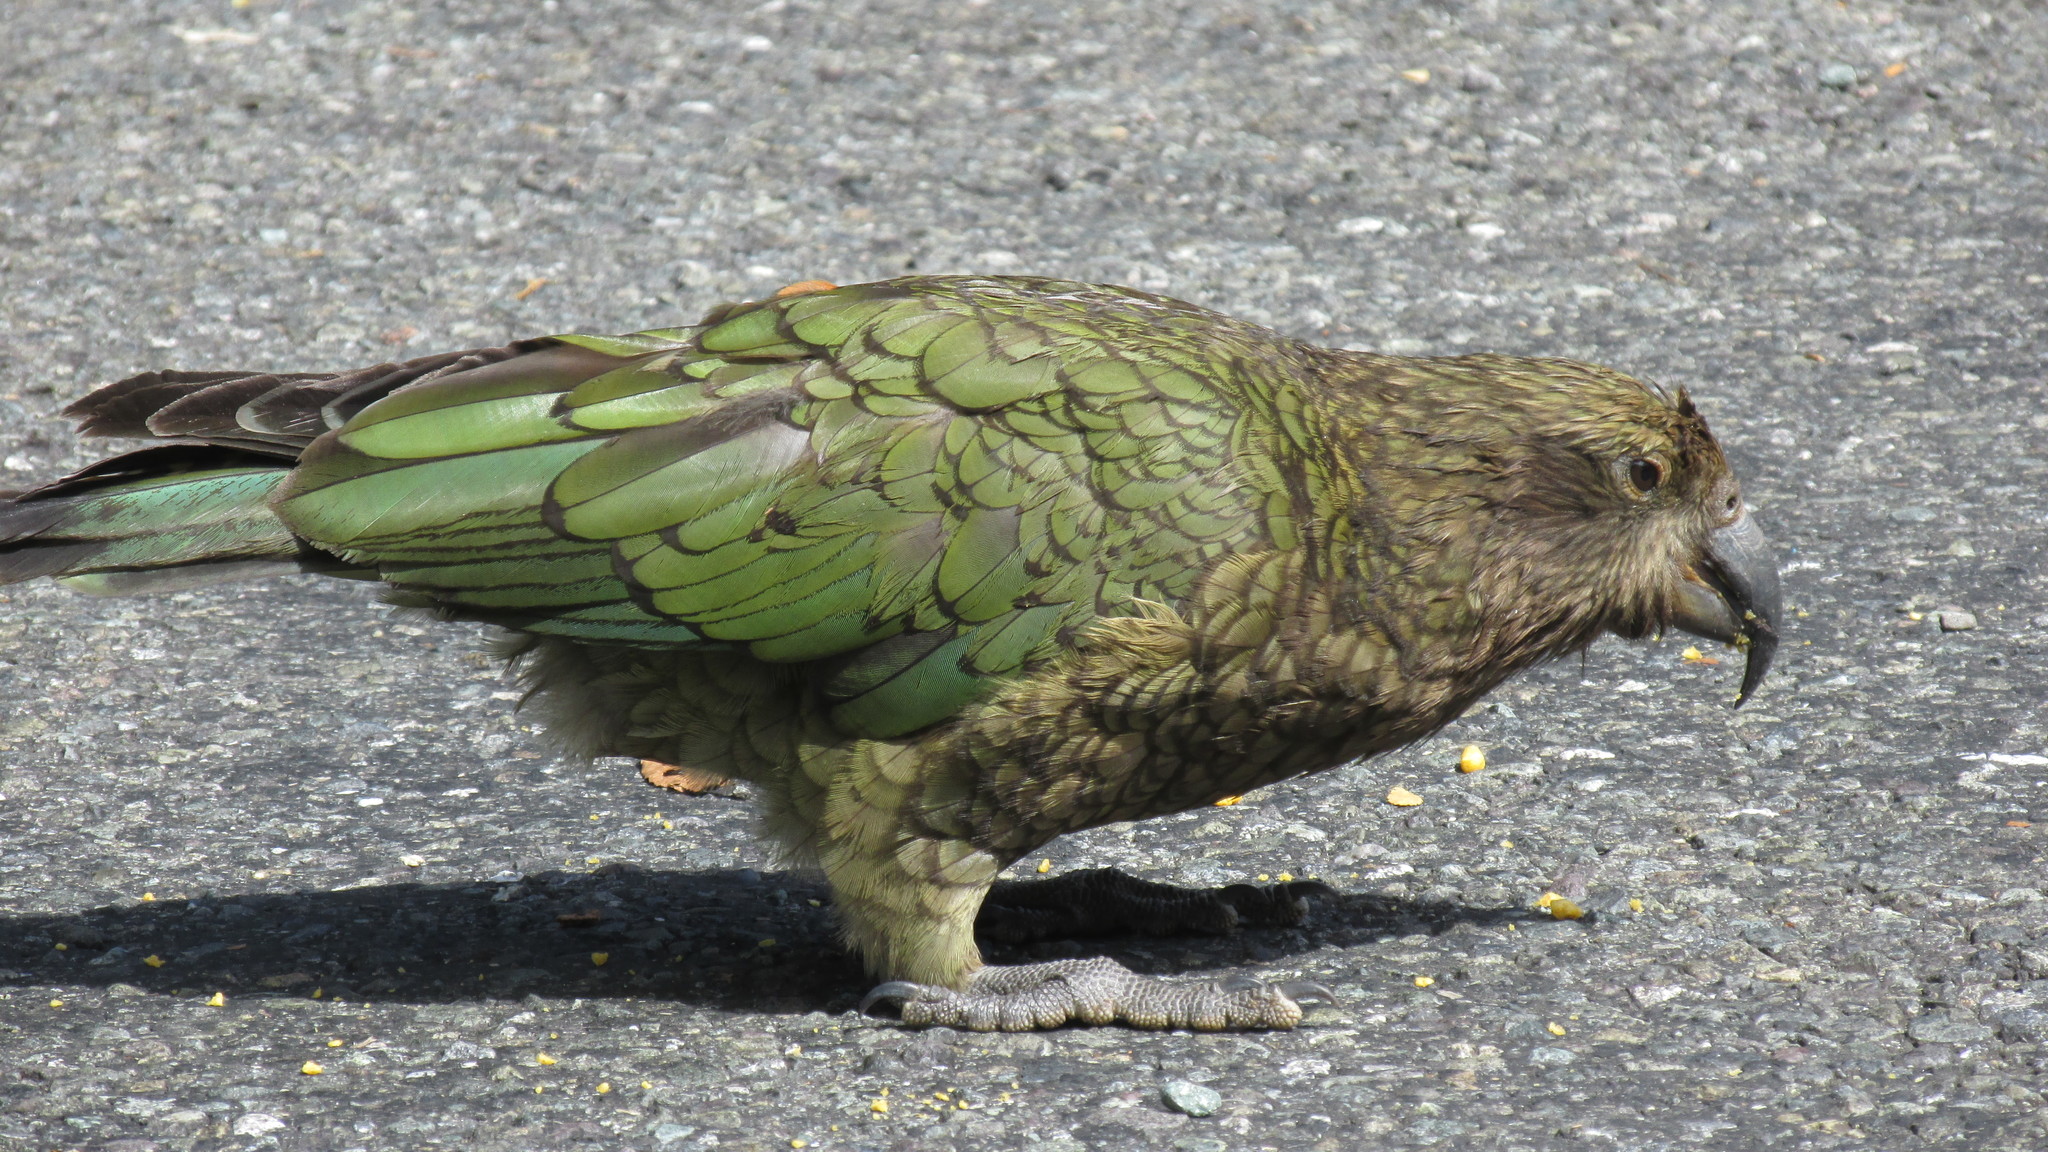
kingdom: Animalia
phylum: Chordata
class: Aves
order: Psittaciformes
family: Psittacidae
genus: Nestor
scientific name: Nestor notabilis
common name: Kea
